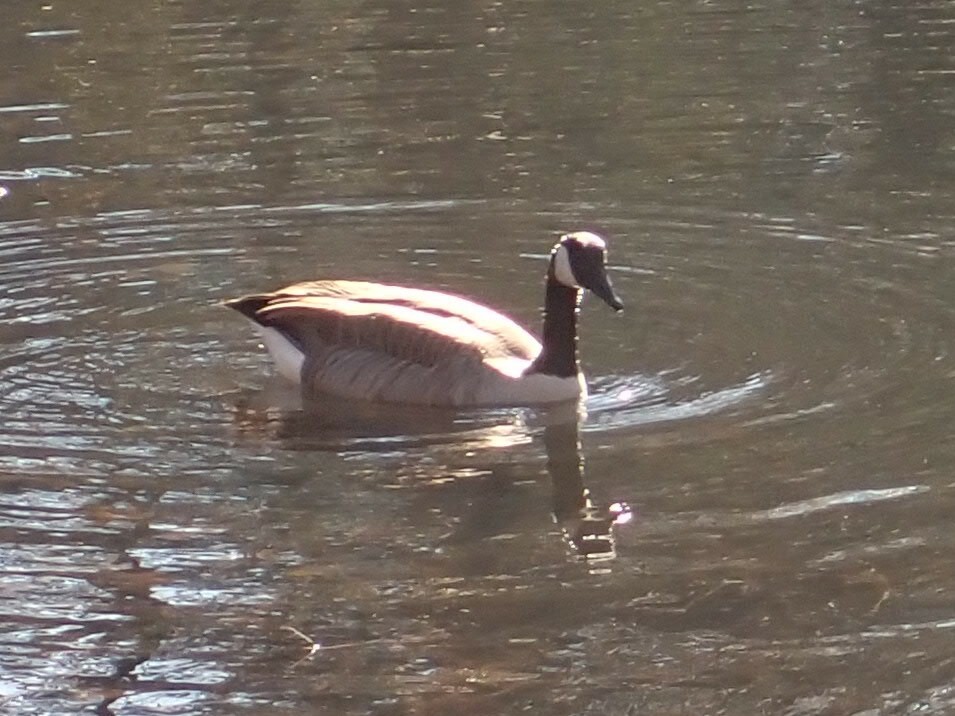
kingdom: Animalia
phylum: Chordata
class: Aves
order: Anseriformes
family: Anatidae
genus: Branta
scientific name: Branta canadensis
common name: Canada goose
